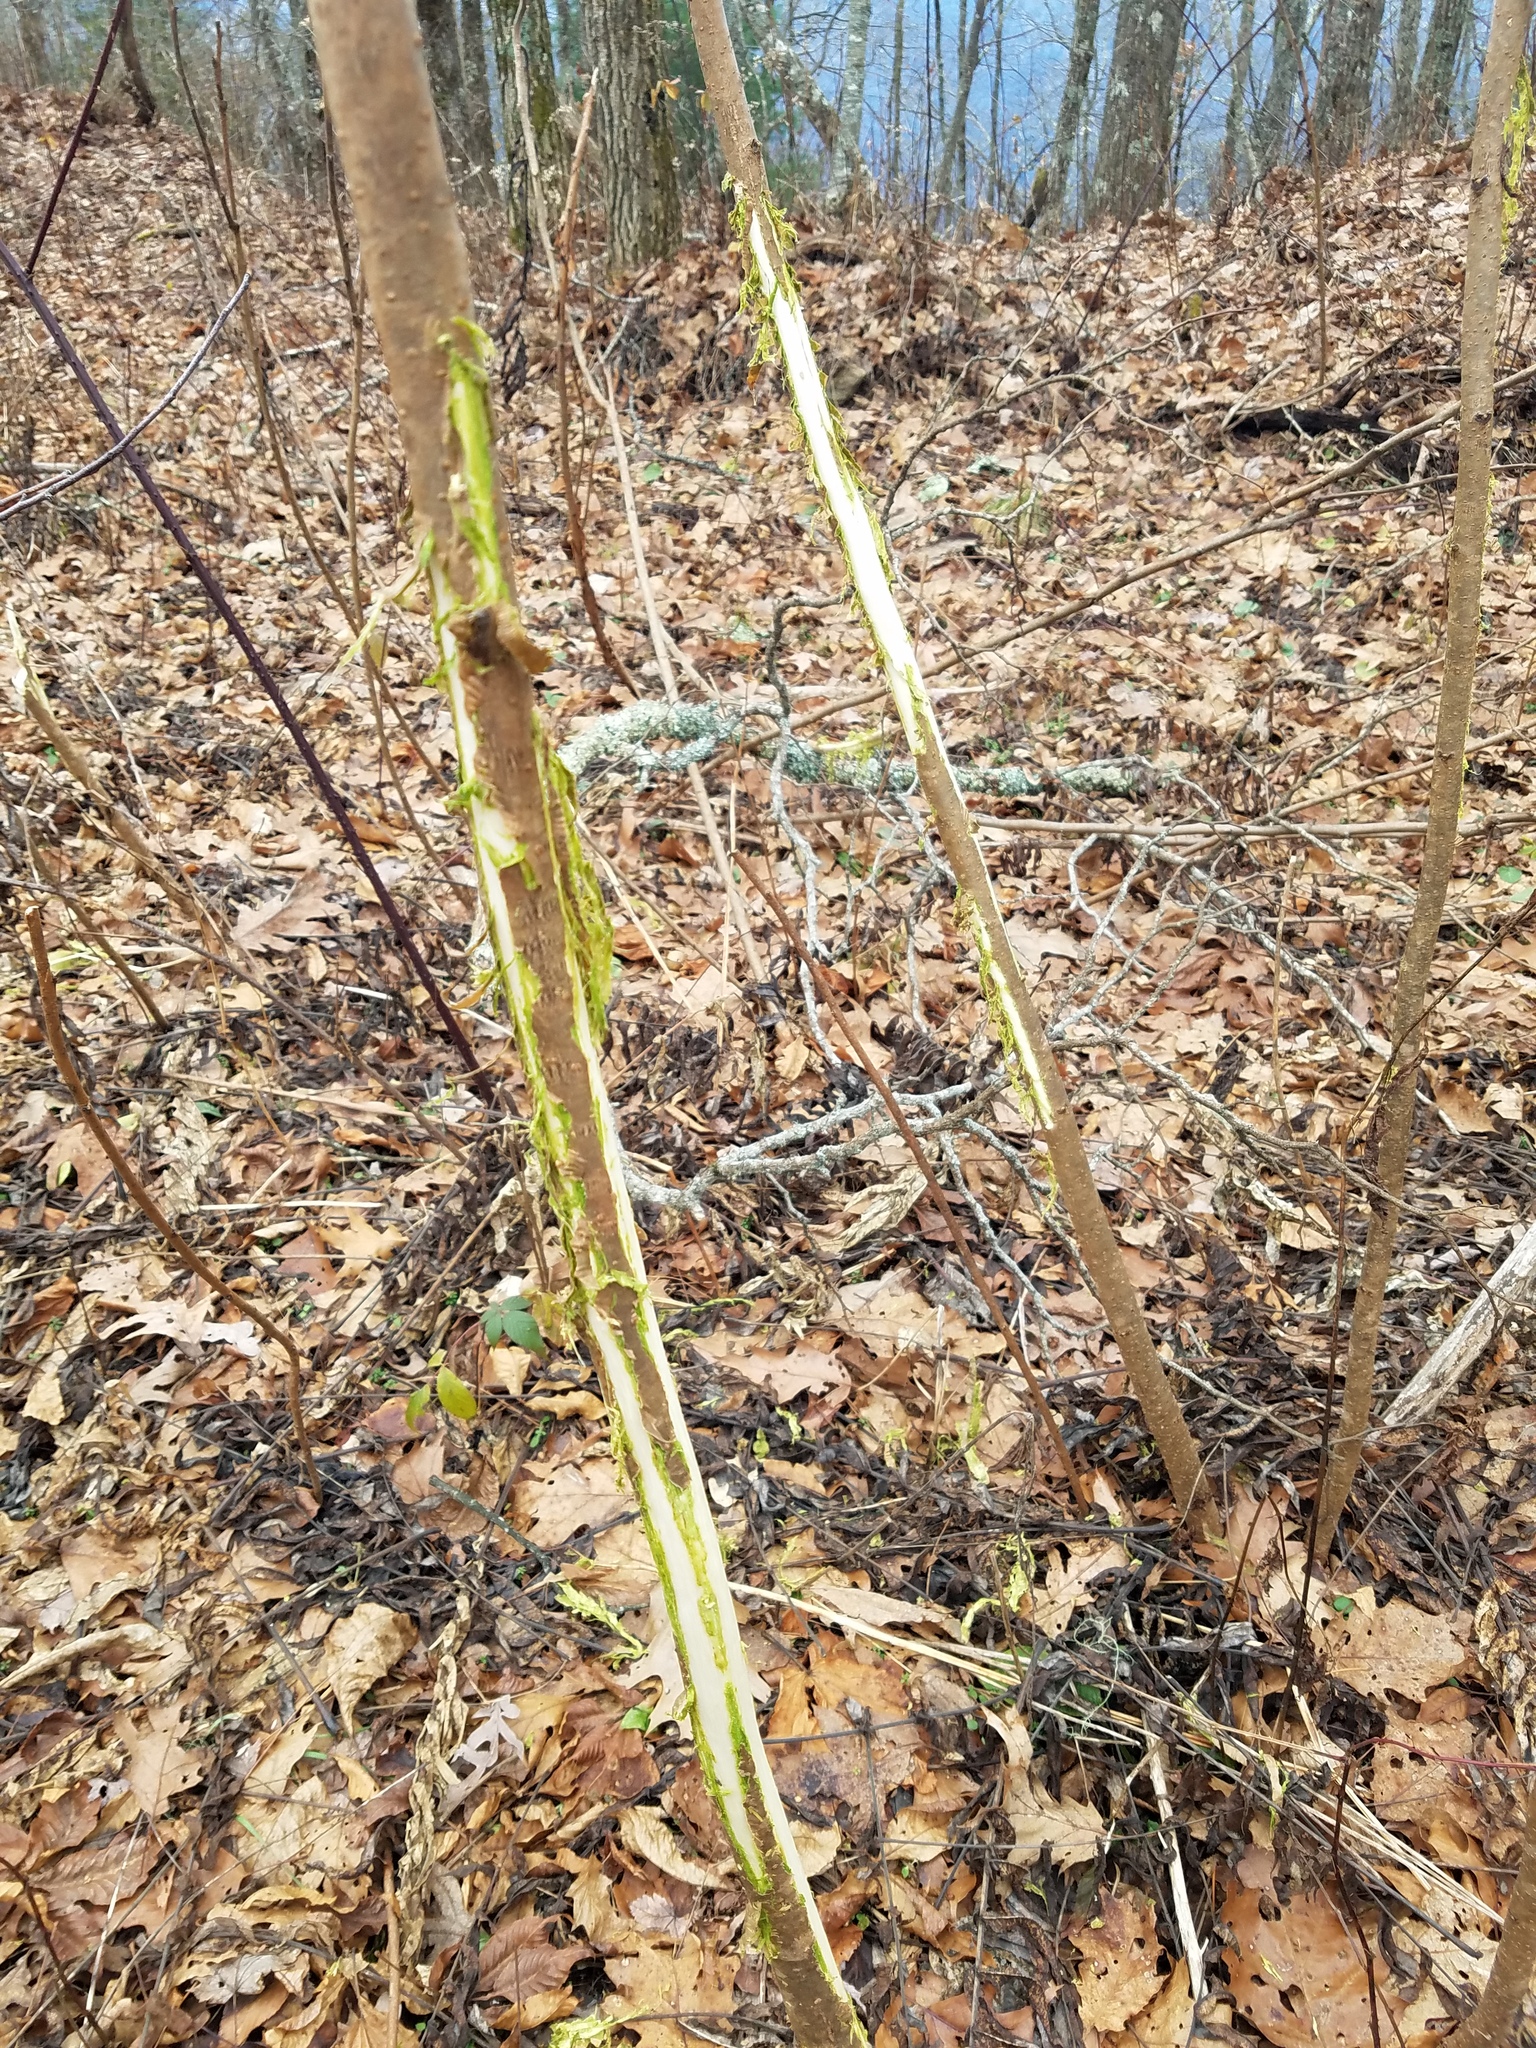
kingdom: Animalia
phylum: Chordata
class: Mammalia
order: Artiodactyla
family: Cervidae
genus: Odocoileus
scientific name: Odocoileus virginianus
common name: White-tailed deer
